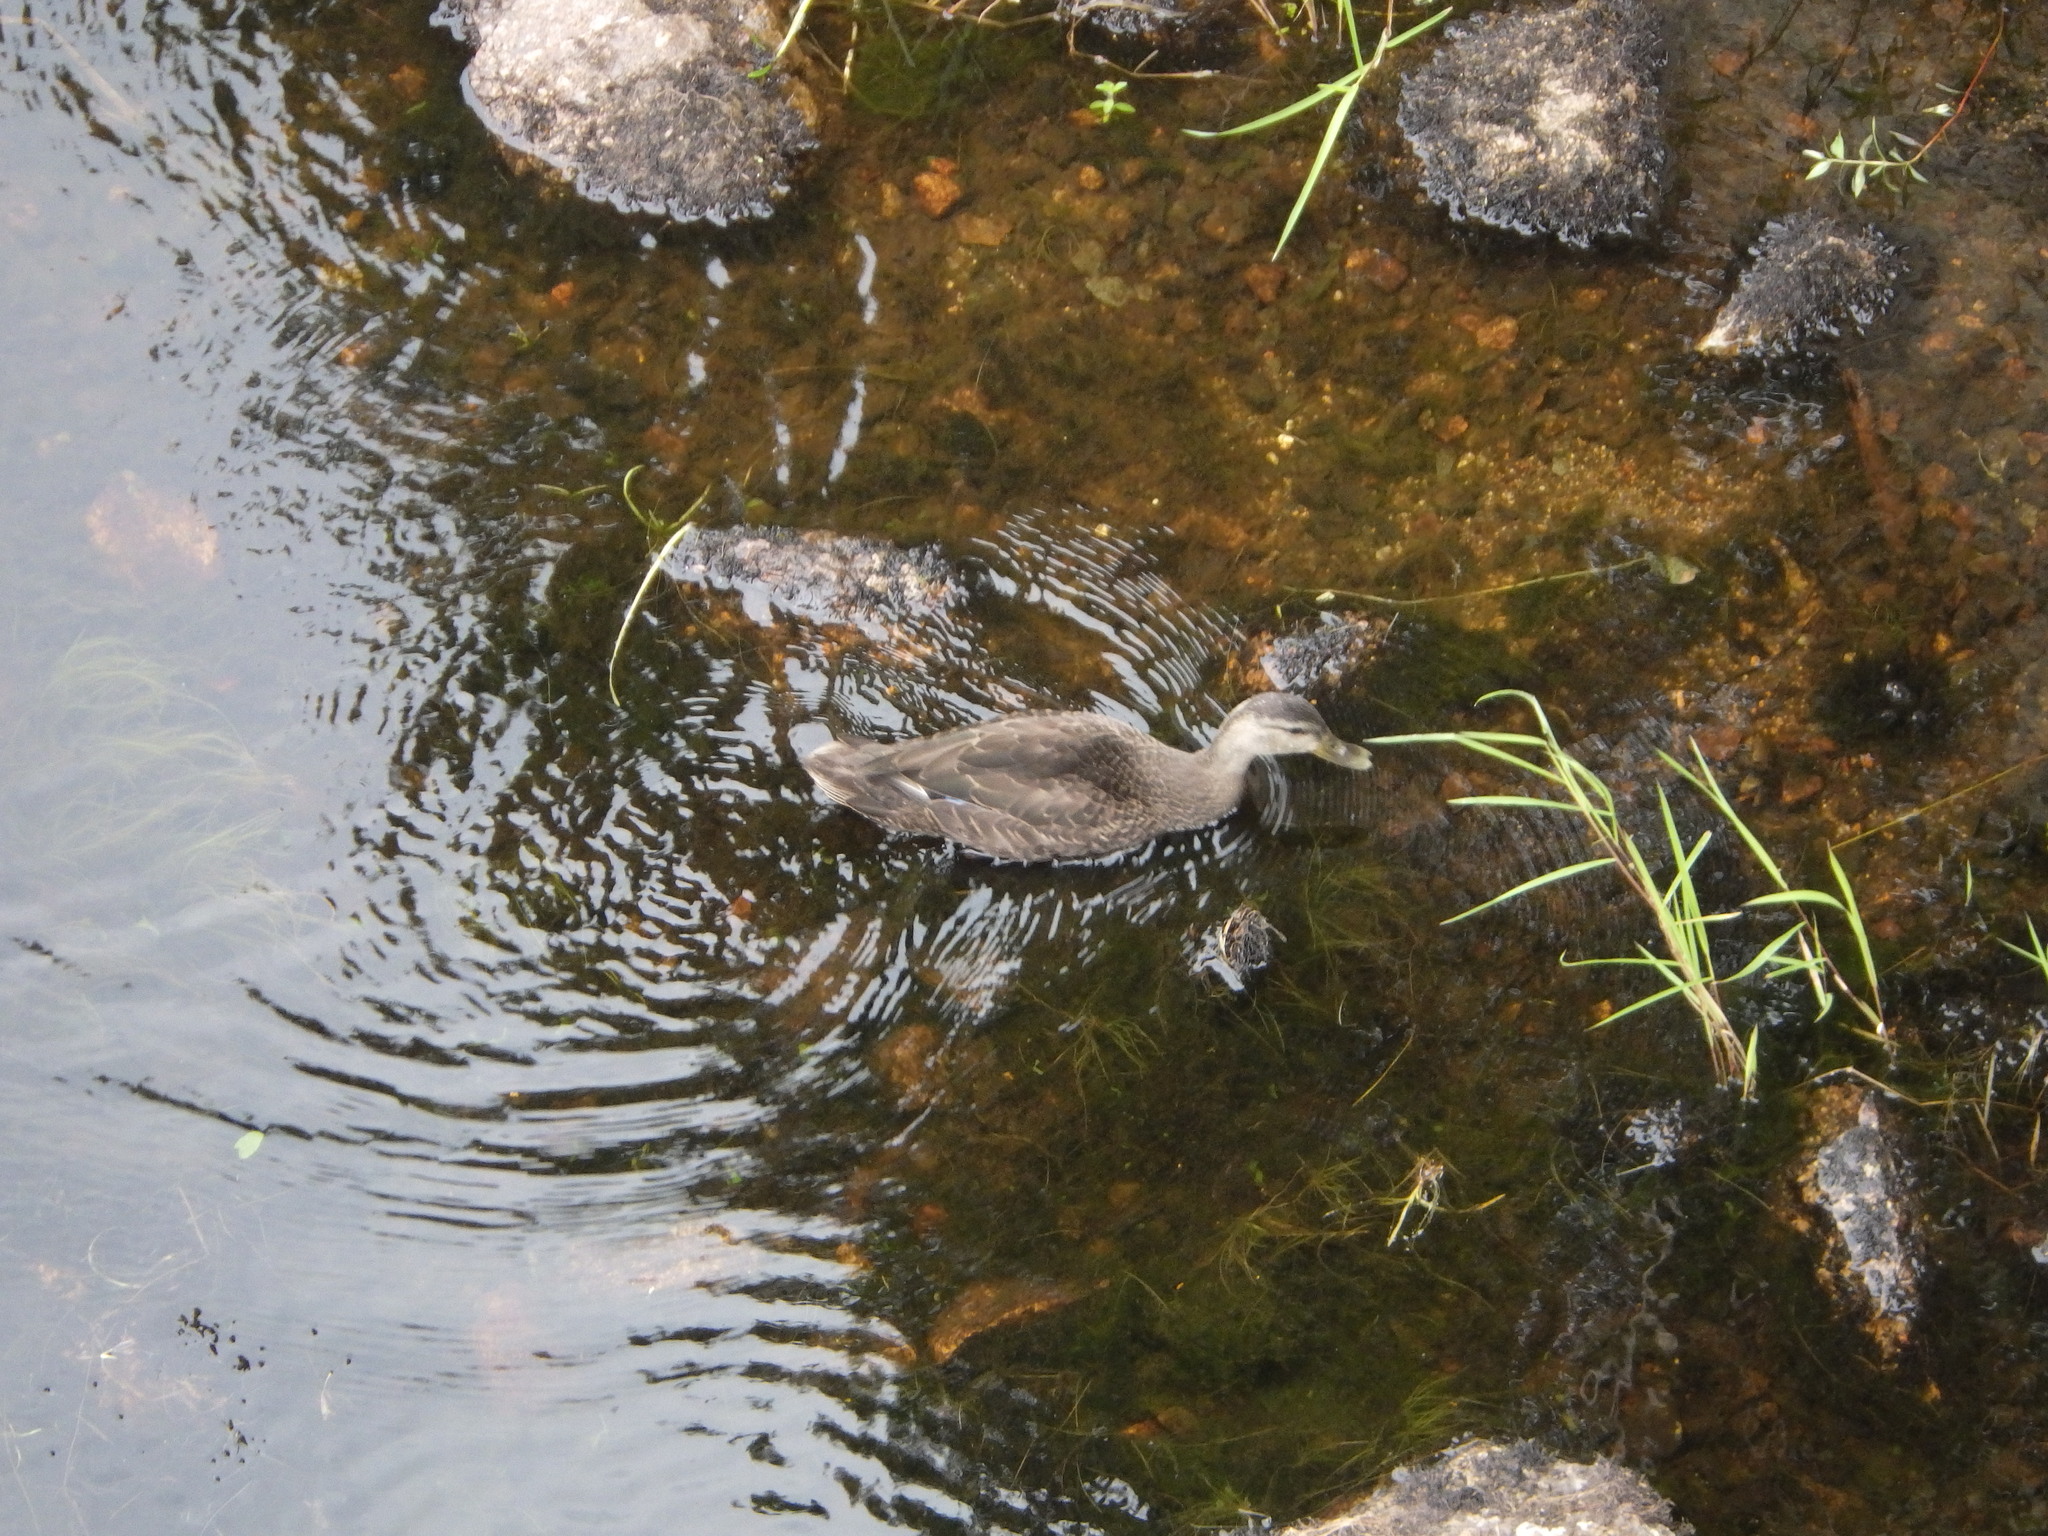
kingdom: Animalia
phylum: Chordata
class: Aves
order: Anseriformes
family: Anatidae
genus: Anas
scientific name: Anas platyrhynchos
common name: Mallard
